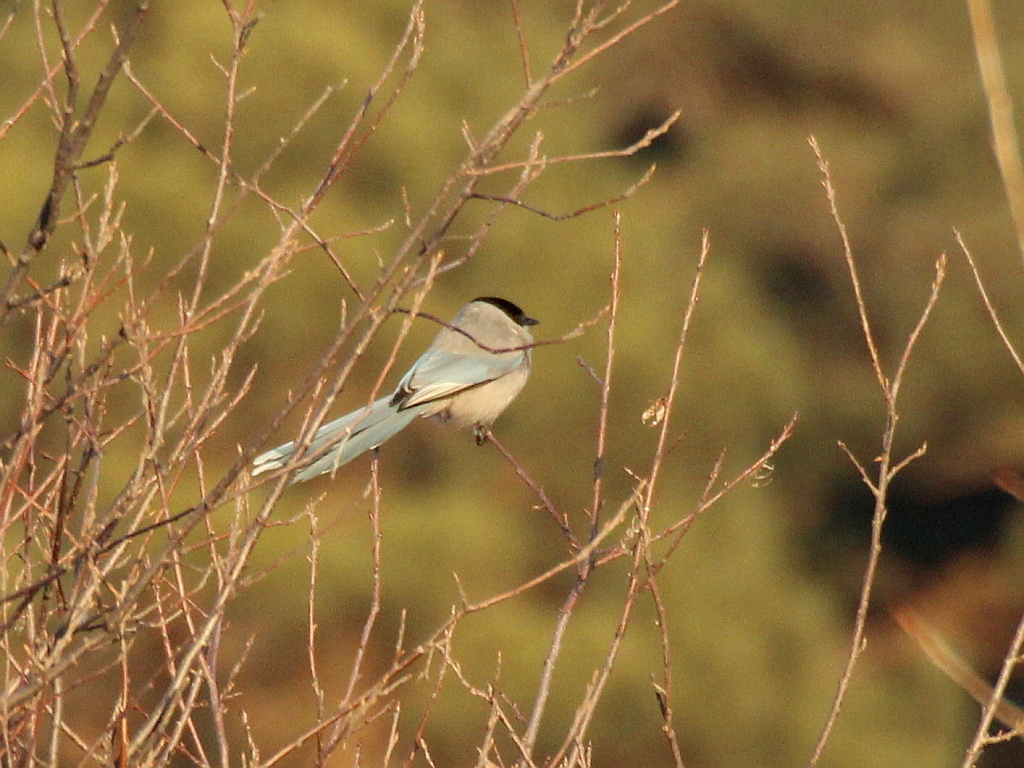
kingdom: Animalia
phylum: Chordata
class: Aves
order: Passeriformes
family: Corvidae
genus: Cyanopica
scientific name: Cyanopica cyanus
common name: Azure-winged magpie
